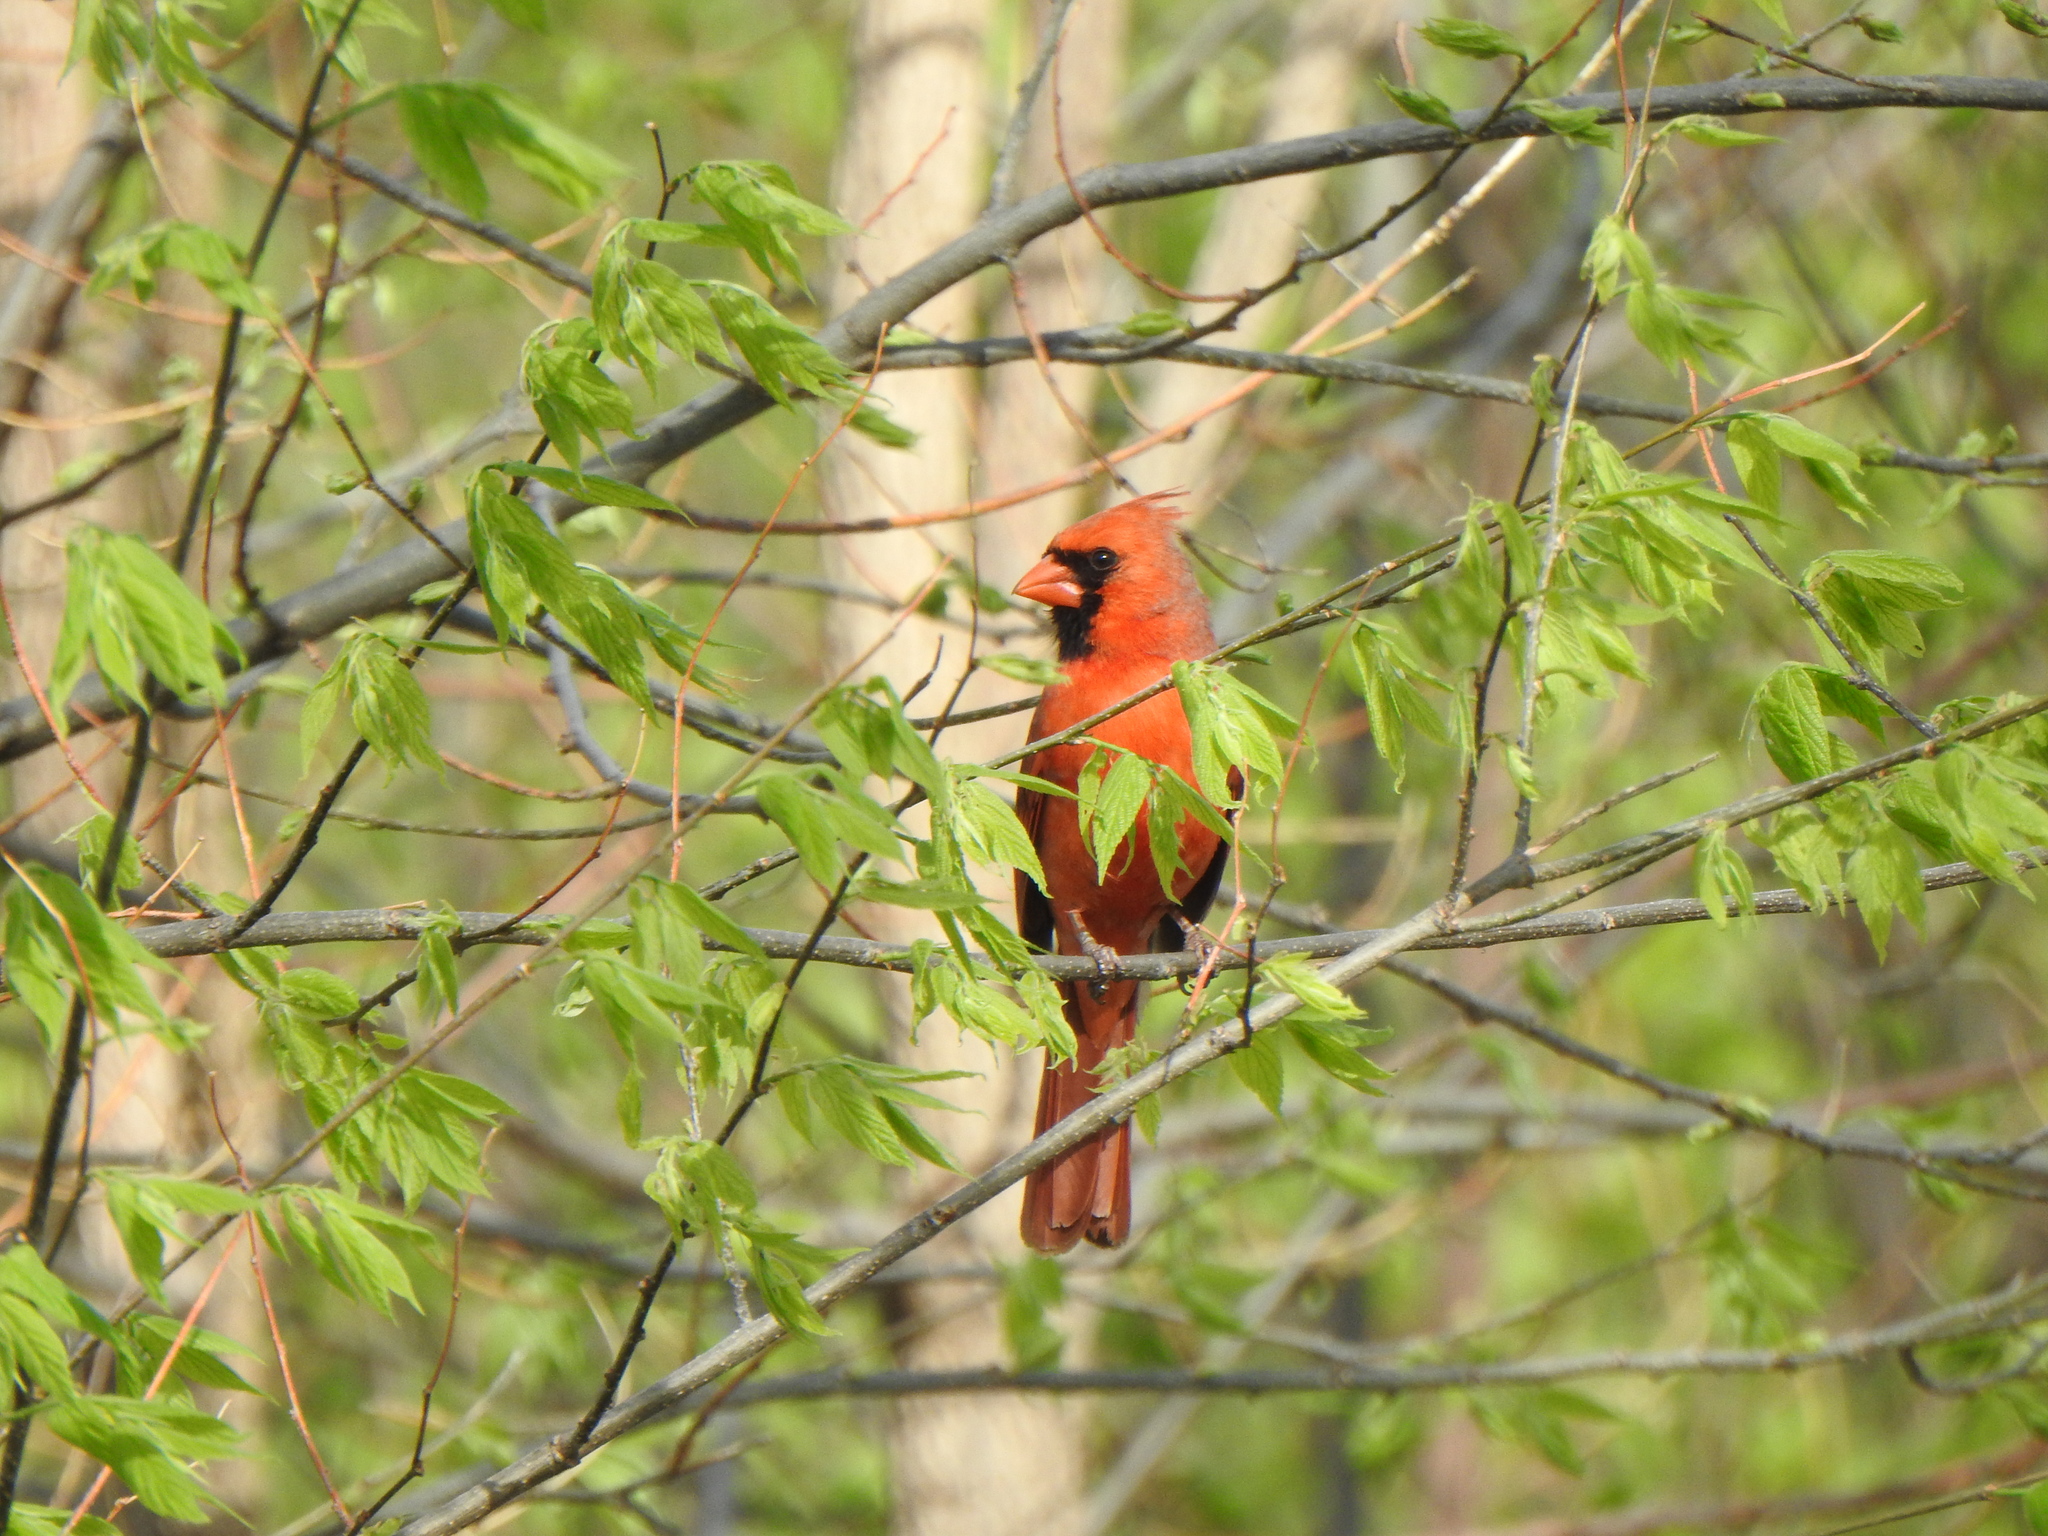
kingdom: Animalia
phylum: Chordata
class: Aves
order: Passeriformes
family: Cardinalidae
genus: Cardinalis
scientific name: Cardinalis cardinalis
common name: Northern cardinal
